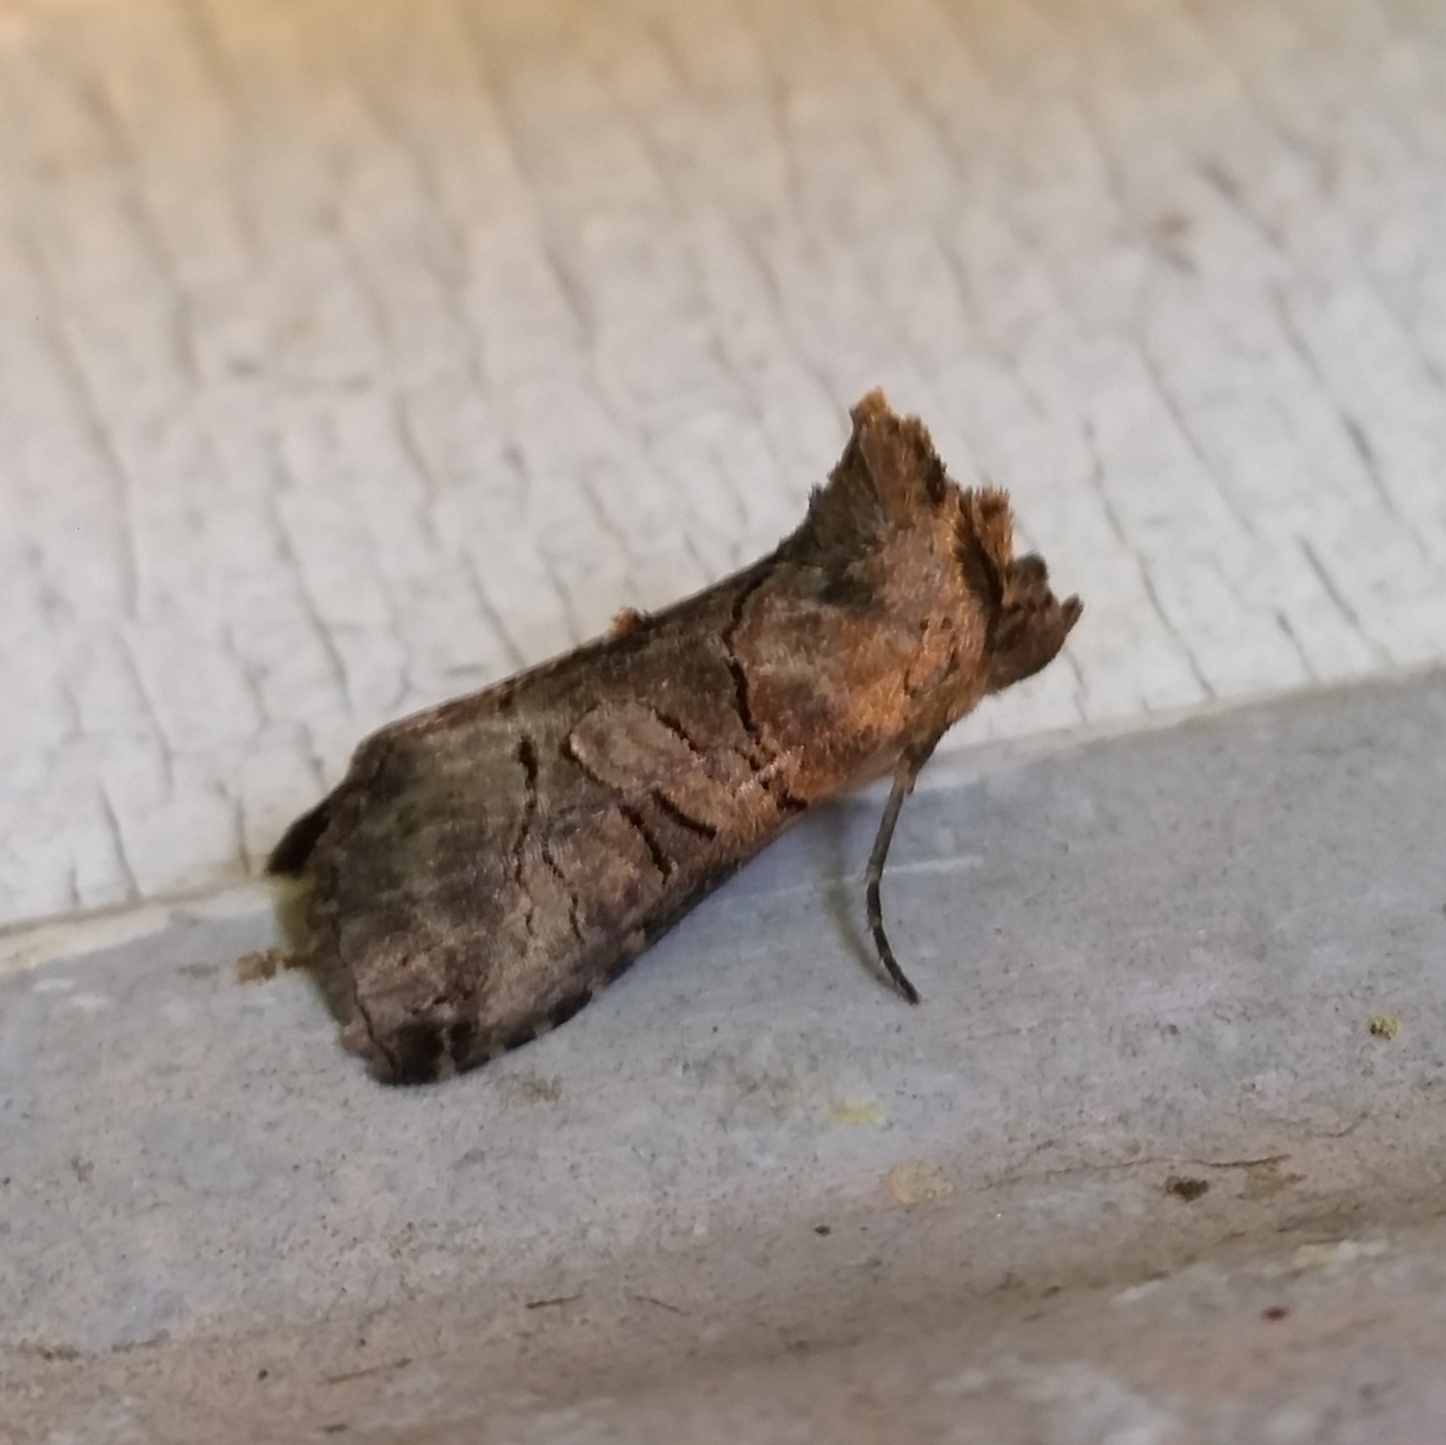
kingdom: Animalia
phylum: Arthropoda
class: Insecta
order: Lepidoptera
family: Noctuidae
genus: Abrostola
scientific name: Abrostola urentis
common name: Spectacled nettle moth
